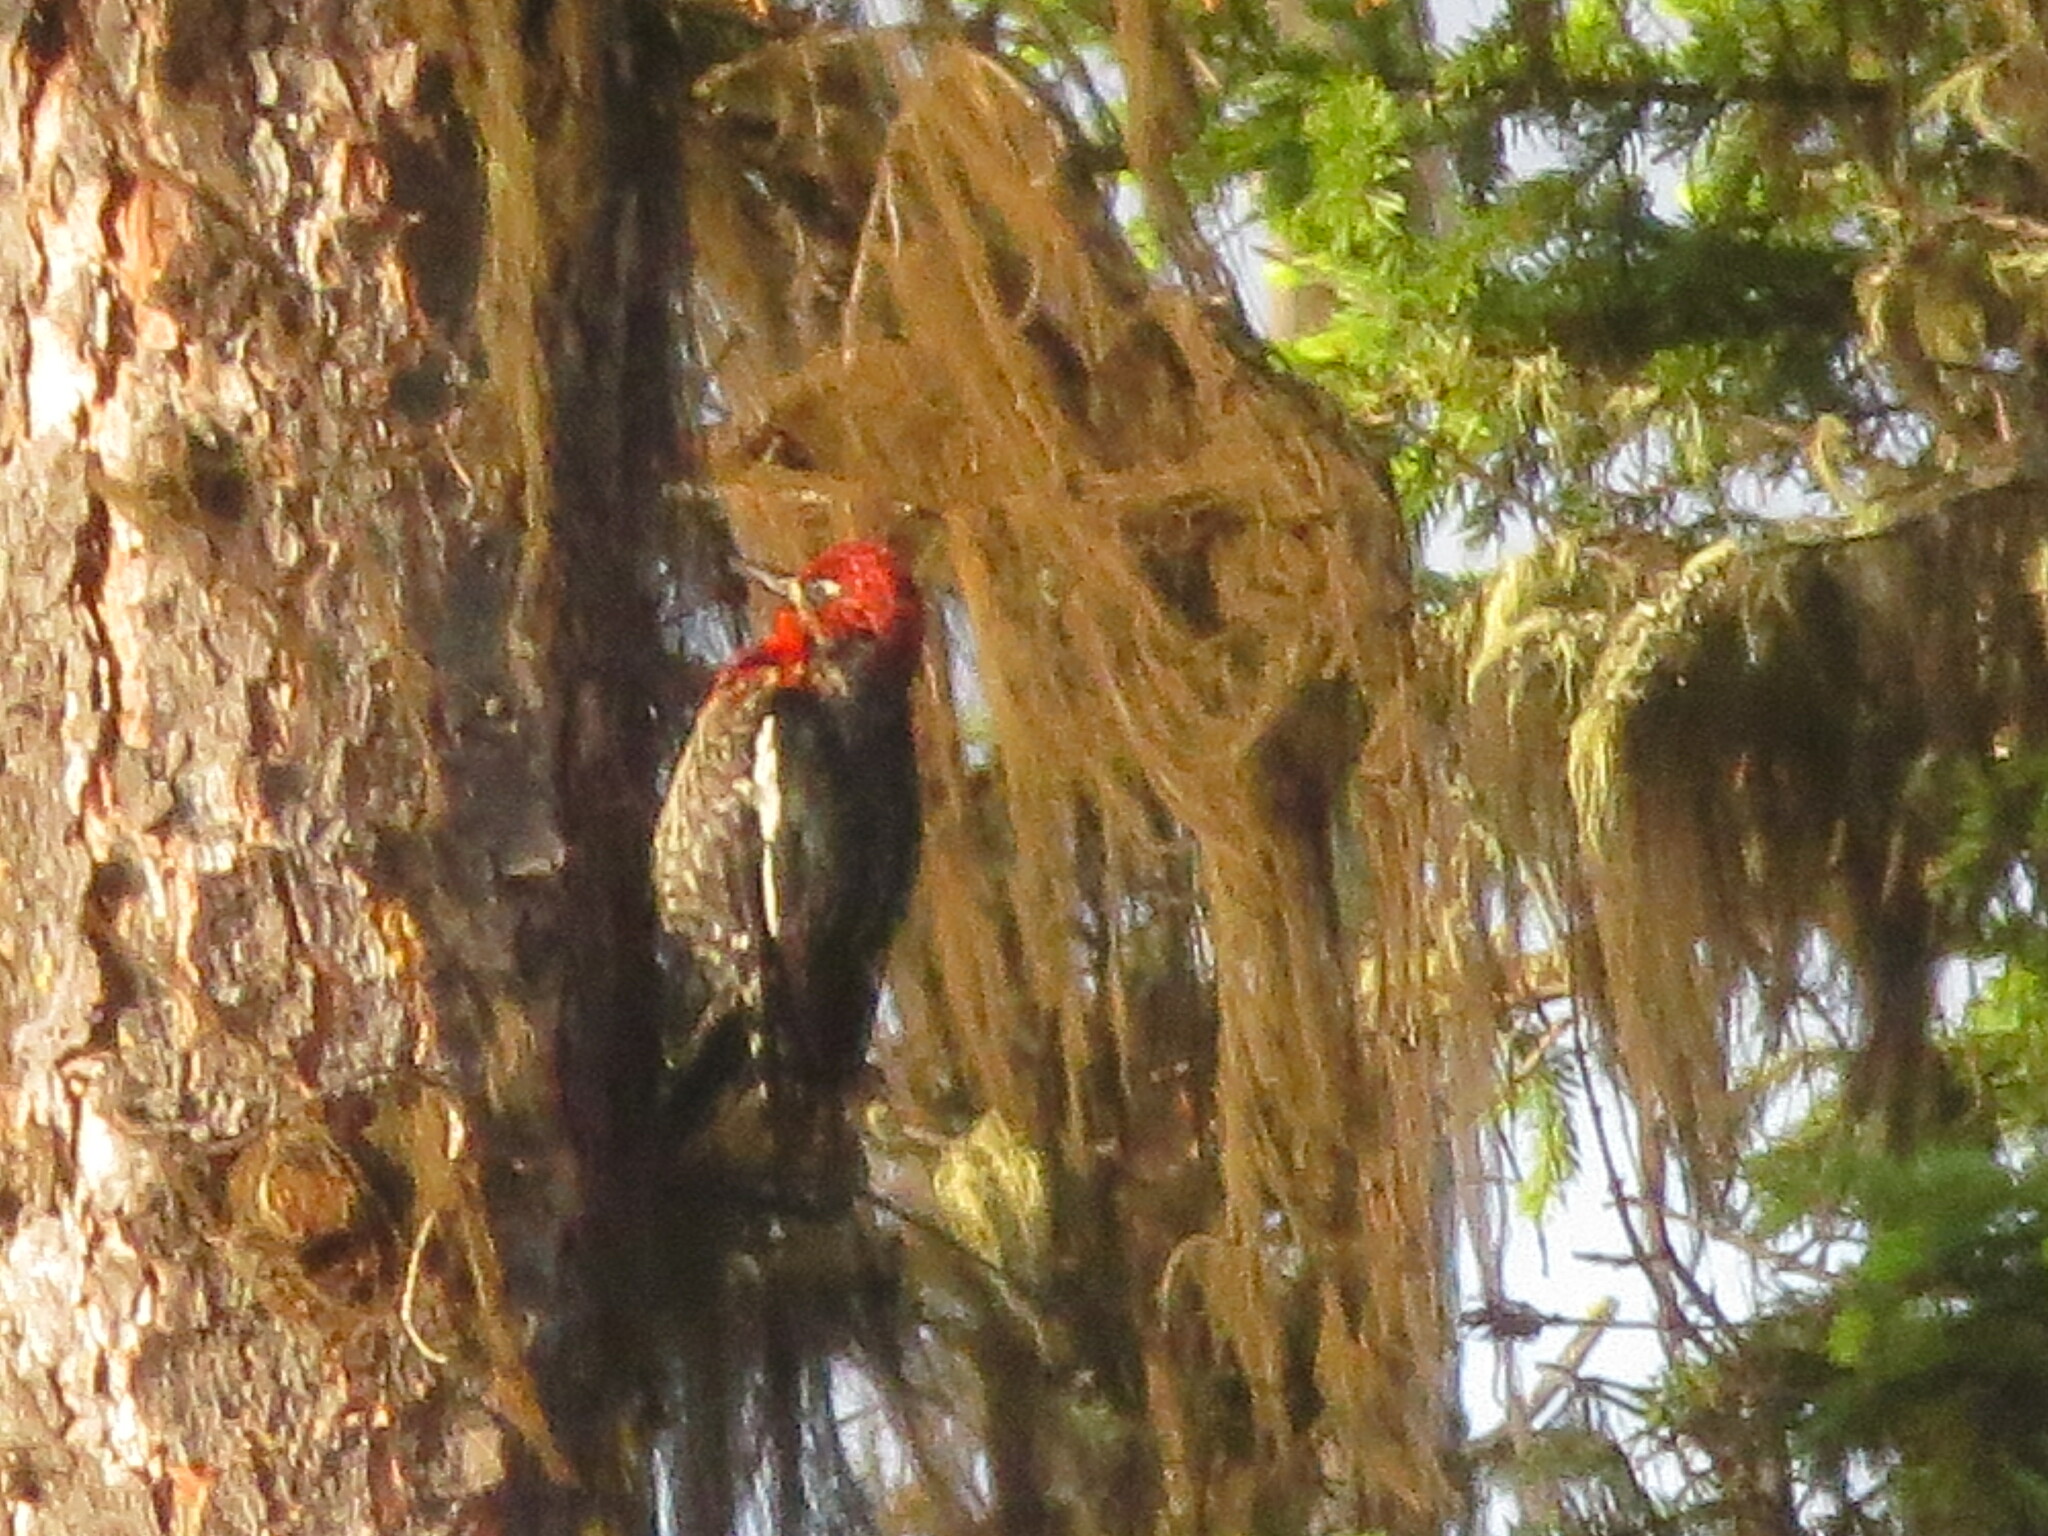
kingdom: Animalia
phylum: Chordata
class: Aves
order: Piciformes
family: Picidae
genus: Sphyrapicus
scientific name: Sphyrapicus ruber
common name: Red-breasted sapsucker
